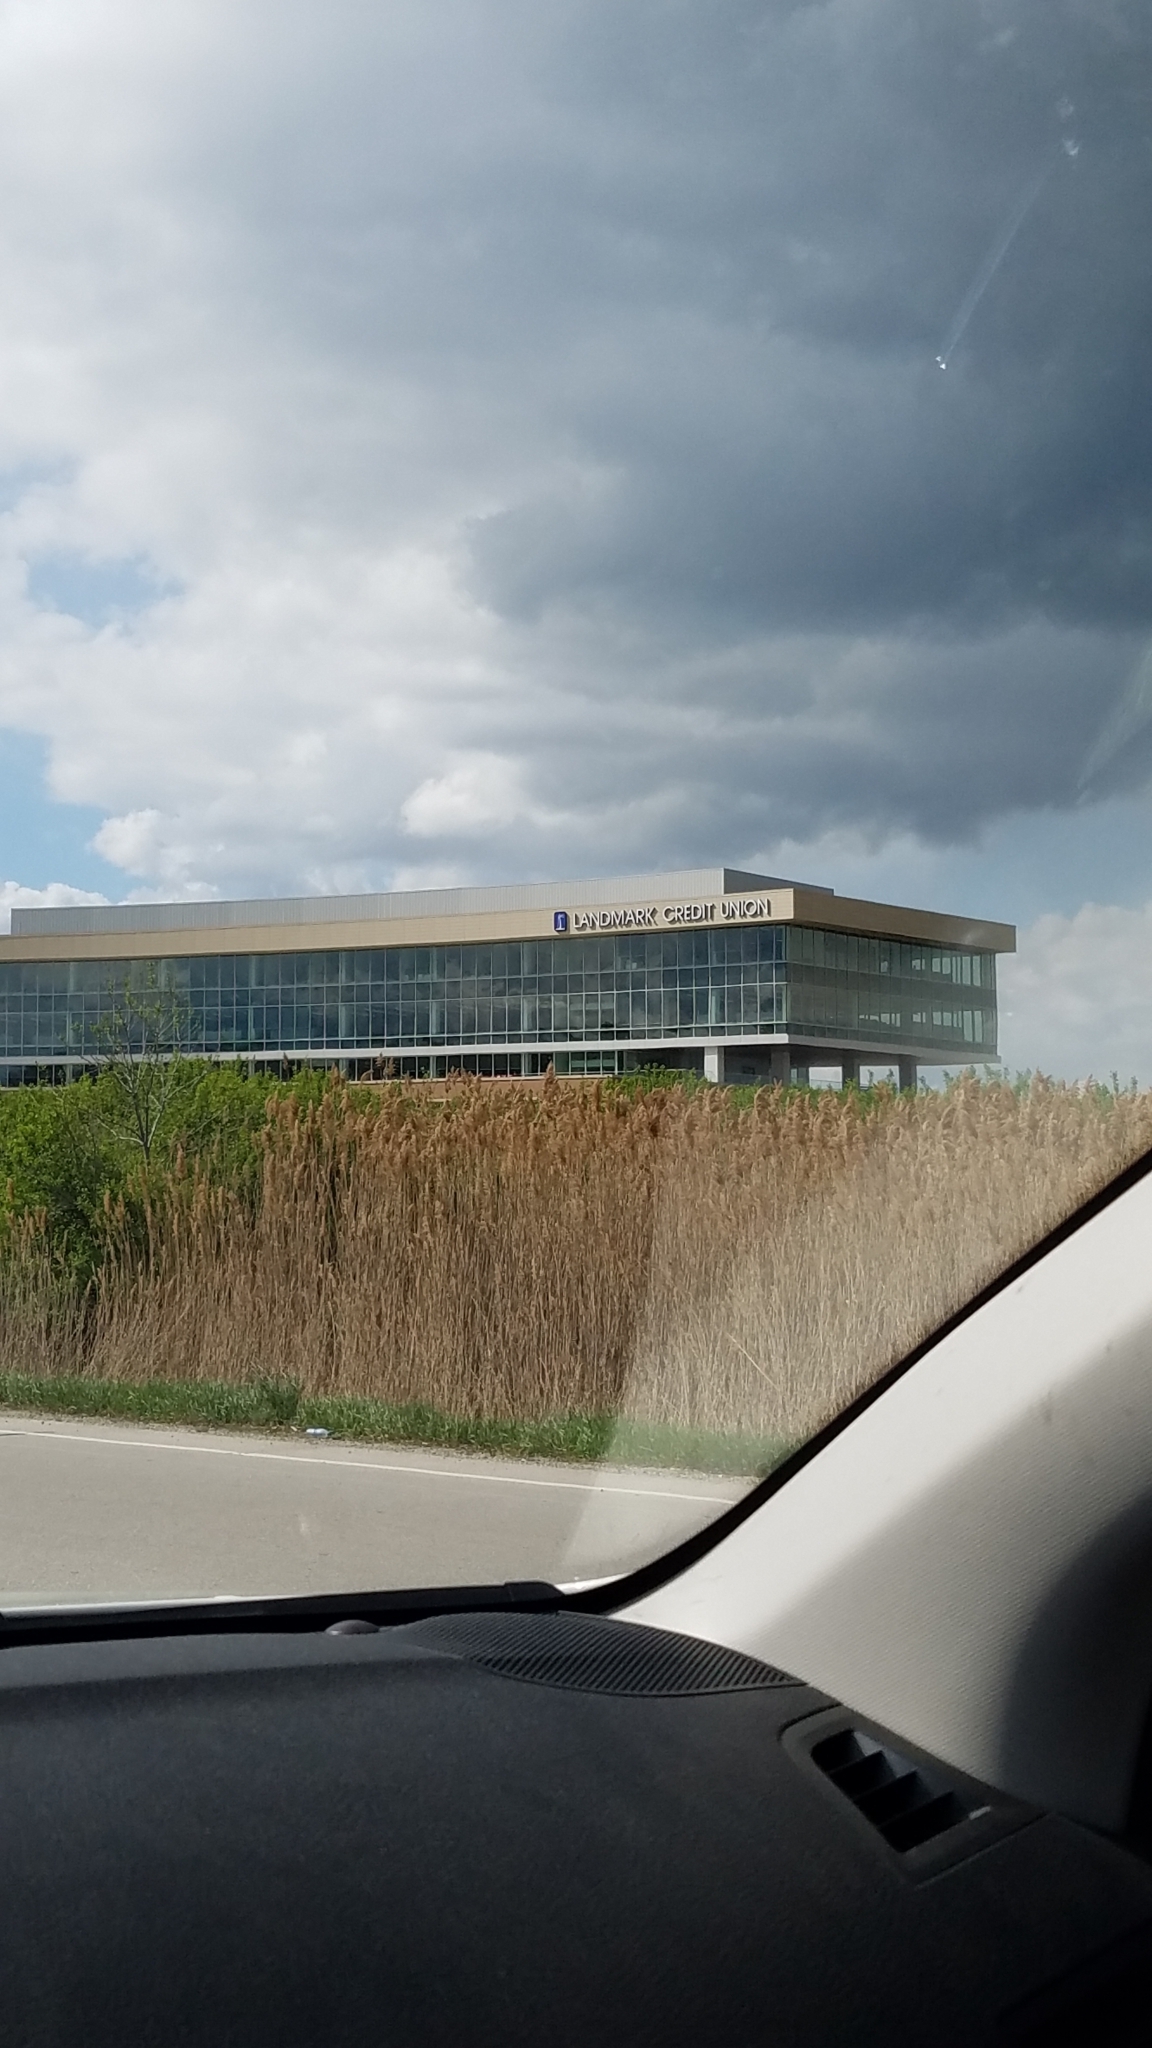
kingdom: Plantae
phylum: Tracheophyta
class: Liliopsida
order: Poales
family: Poaceae
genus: Phragmites
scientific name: Phragmites australis
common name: Common reed
